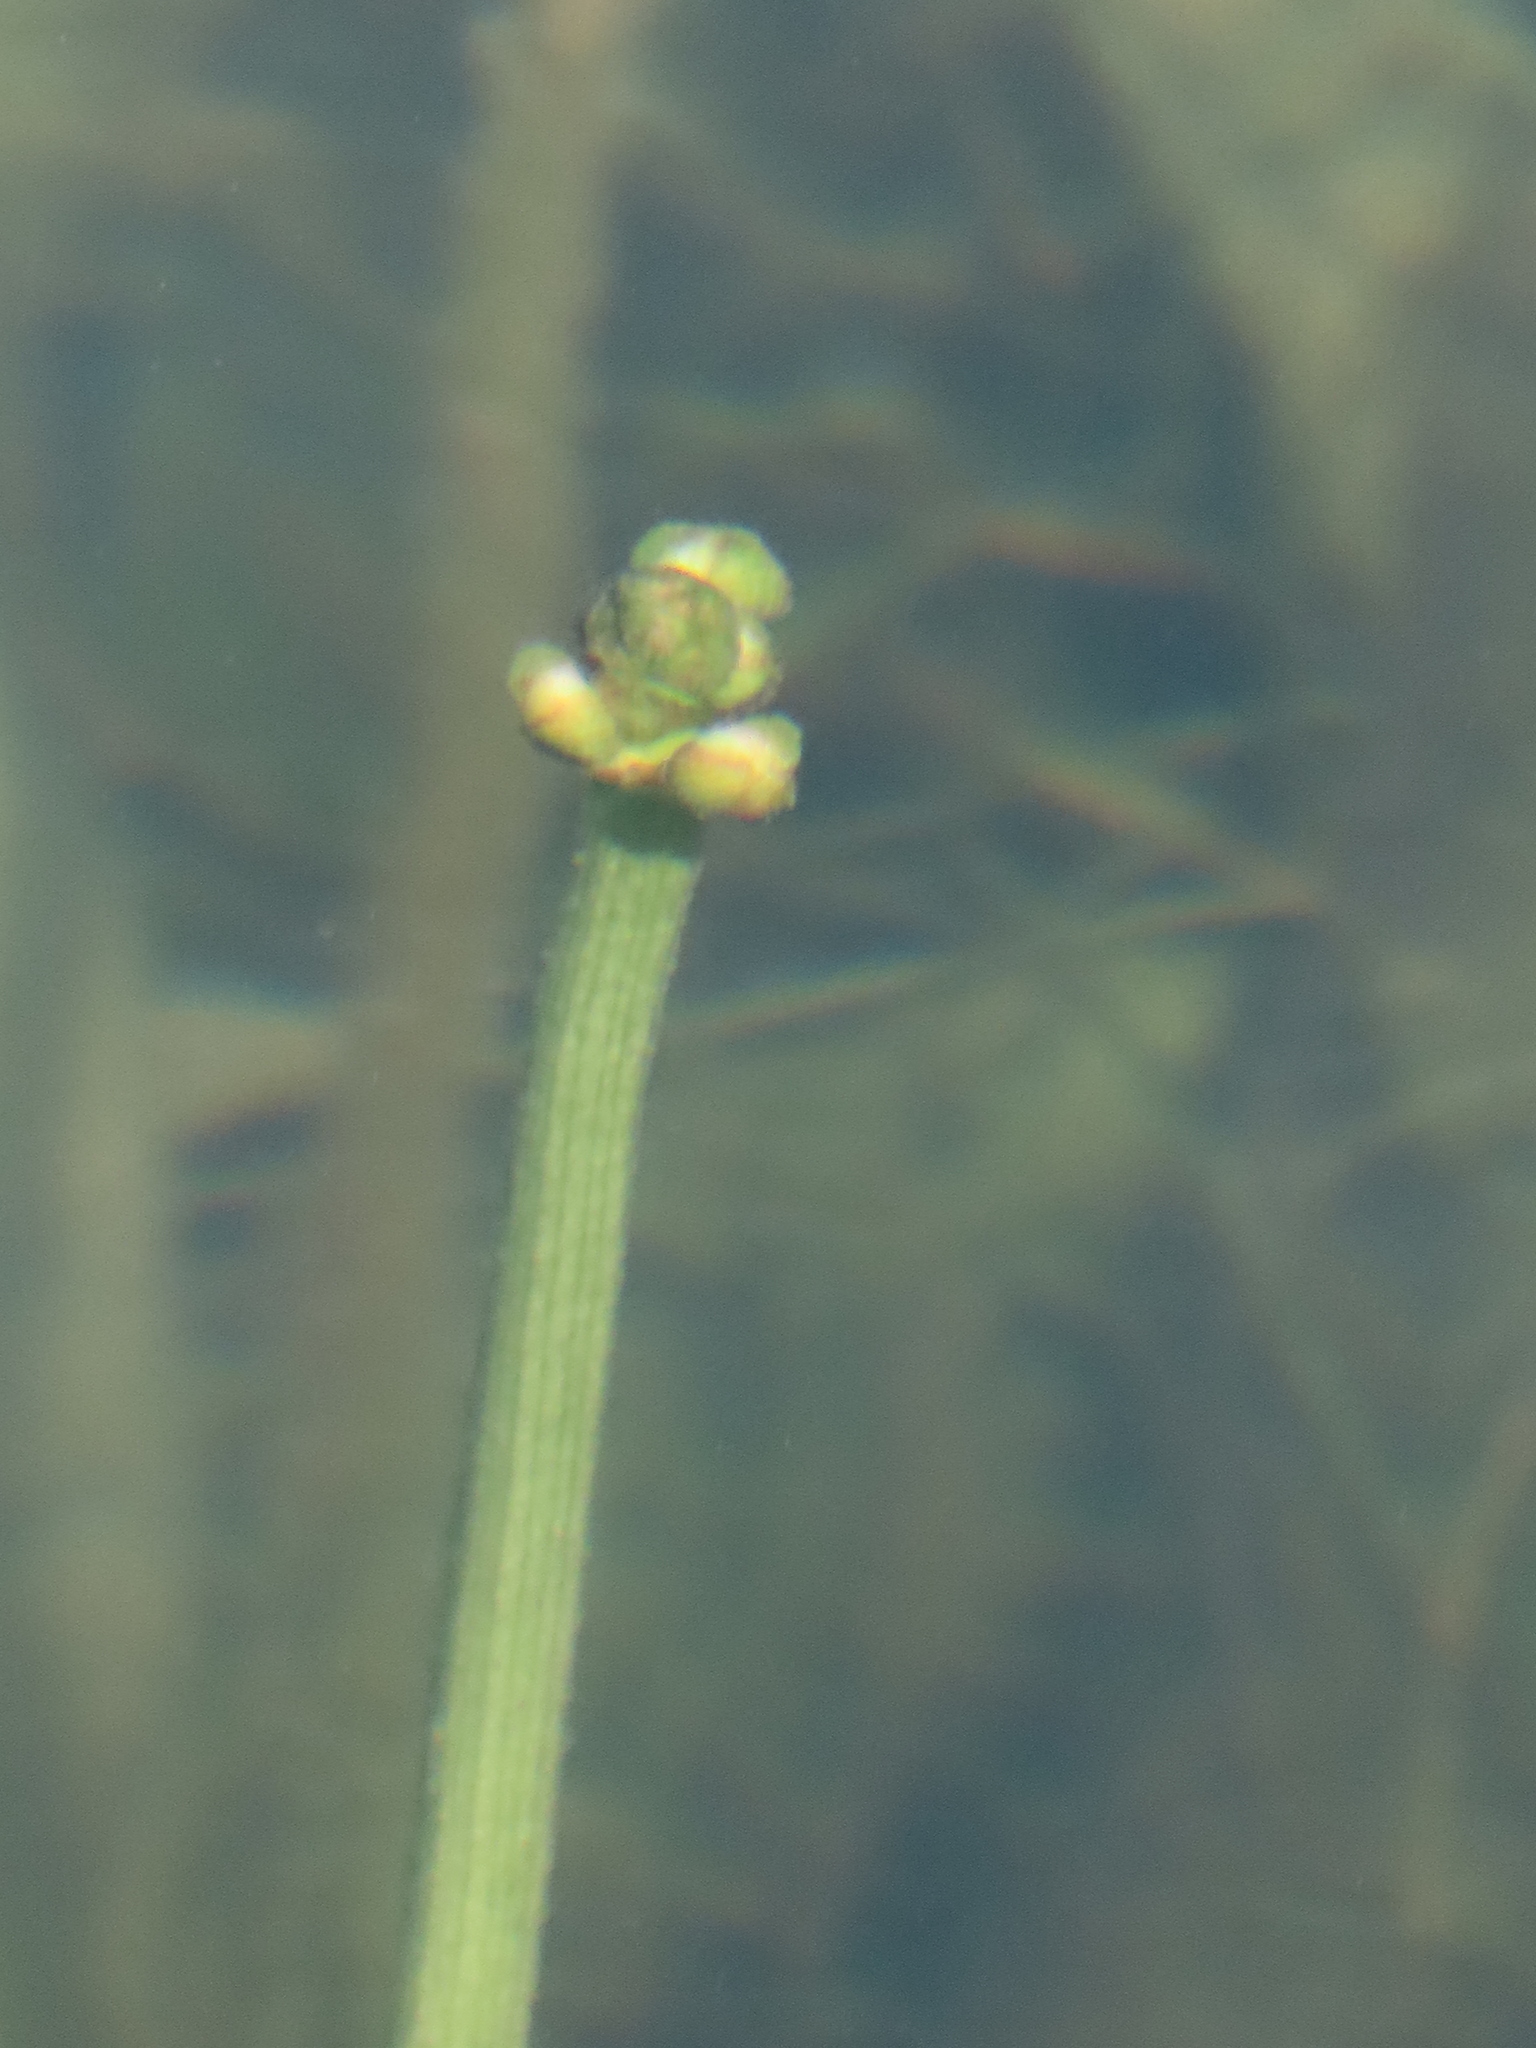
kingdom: Plantae
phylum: Tracheophyta
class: Liliopsida
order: Alismatales
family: Alismataceae
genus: Sagittaria
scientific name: Sagittaria platyphylla
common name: Broad-leaf arrowhead
